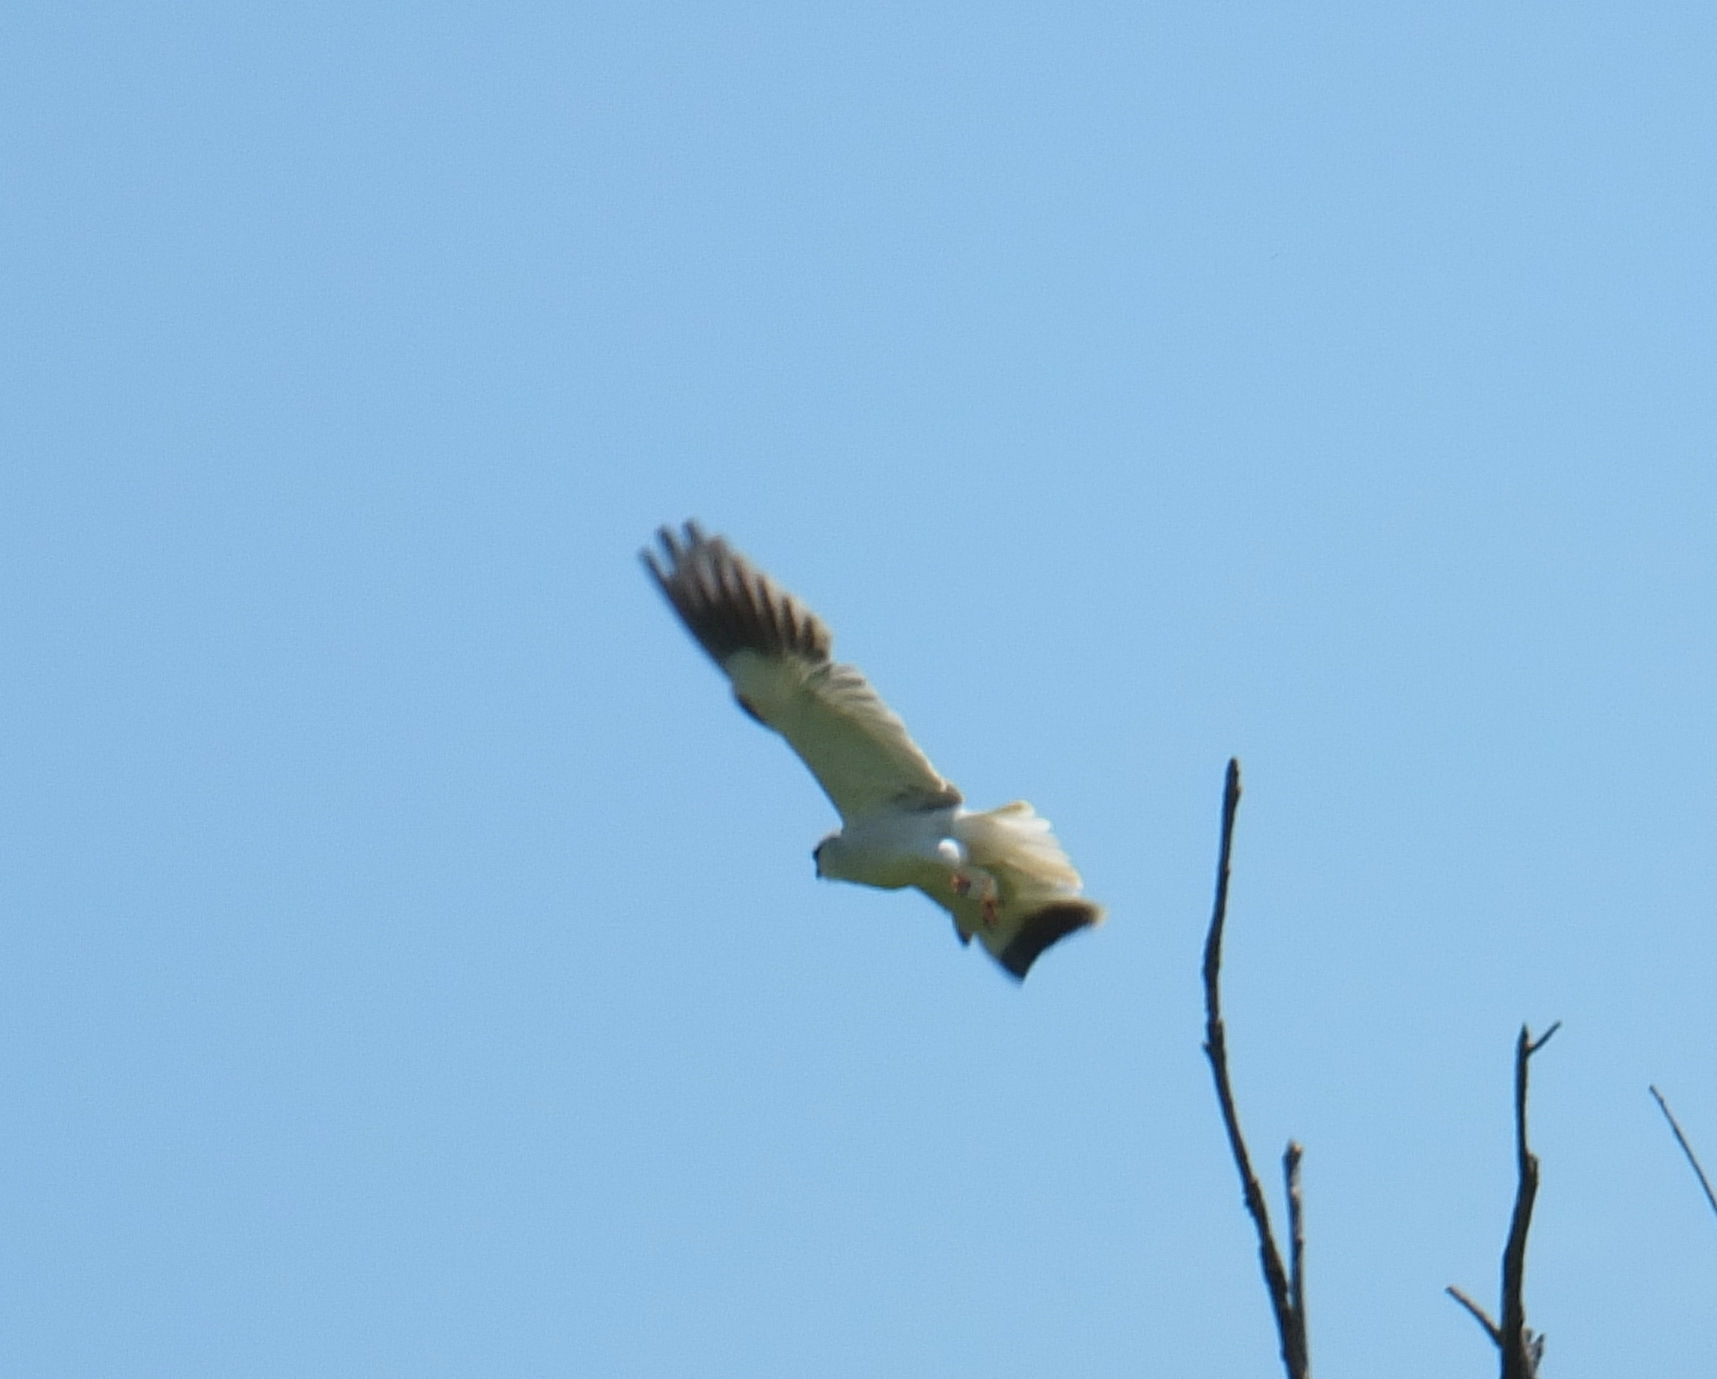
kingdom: Animalia
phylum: Chordata
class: Aves
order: Accipitriformes
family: Accipitridae
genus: Elanus
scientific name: Elanus caeruleus
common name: Black-winged kite
